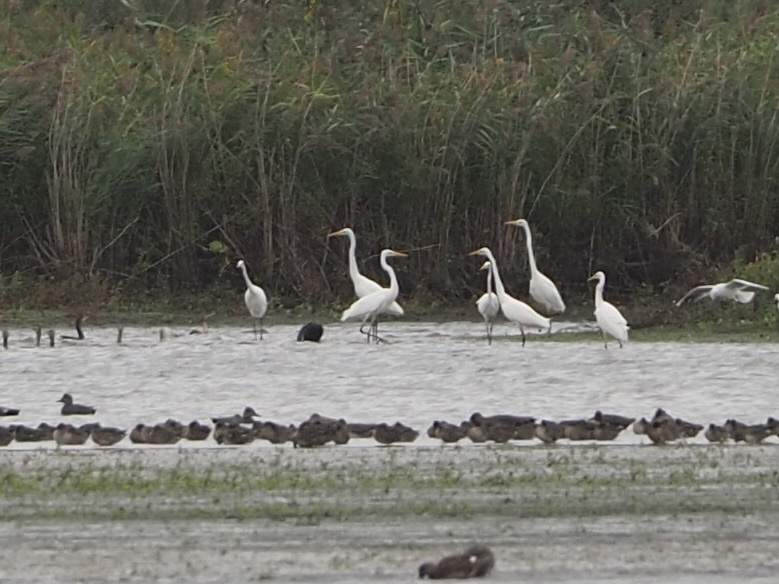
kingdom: Animalia
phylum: Chordata
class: Aves
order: Pelecaniformes
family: Ardeidae
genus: Ardea
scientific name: Ardea alba
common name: Great egret
